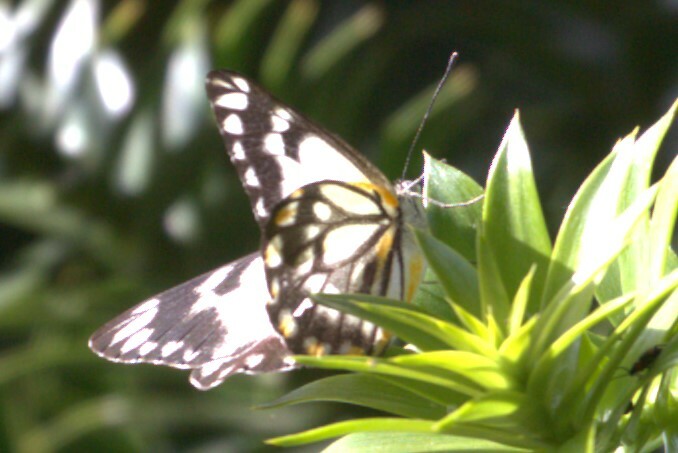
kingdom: Animalia
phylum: Arthropoda
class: Insecta
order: Lepidoptera
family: Pieridae
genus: Belenois
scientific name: Belenois java
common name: Caper white
